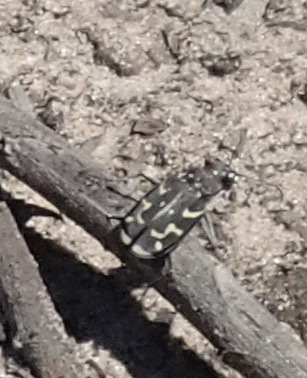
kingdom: Animalia
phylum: Arthropoda
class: Insecta
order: Coleoptera
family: Carabidae
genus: Cicindela
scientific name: Cicindela lurida
